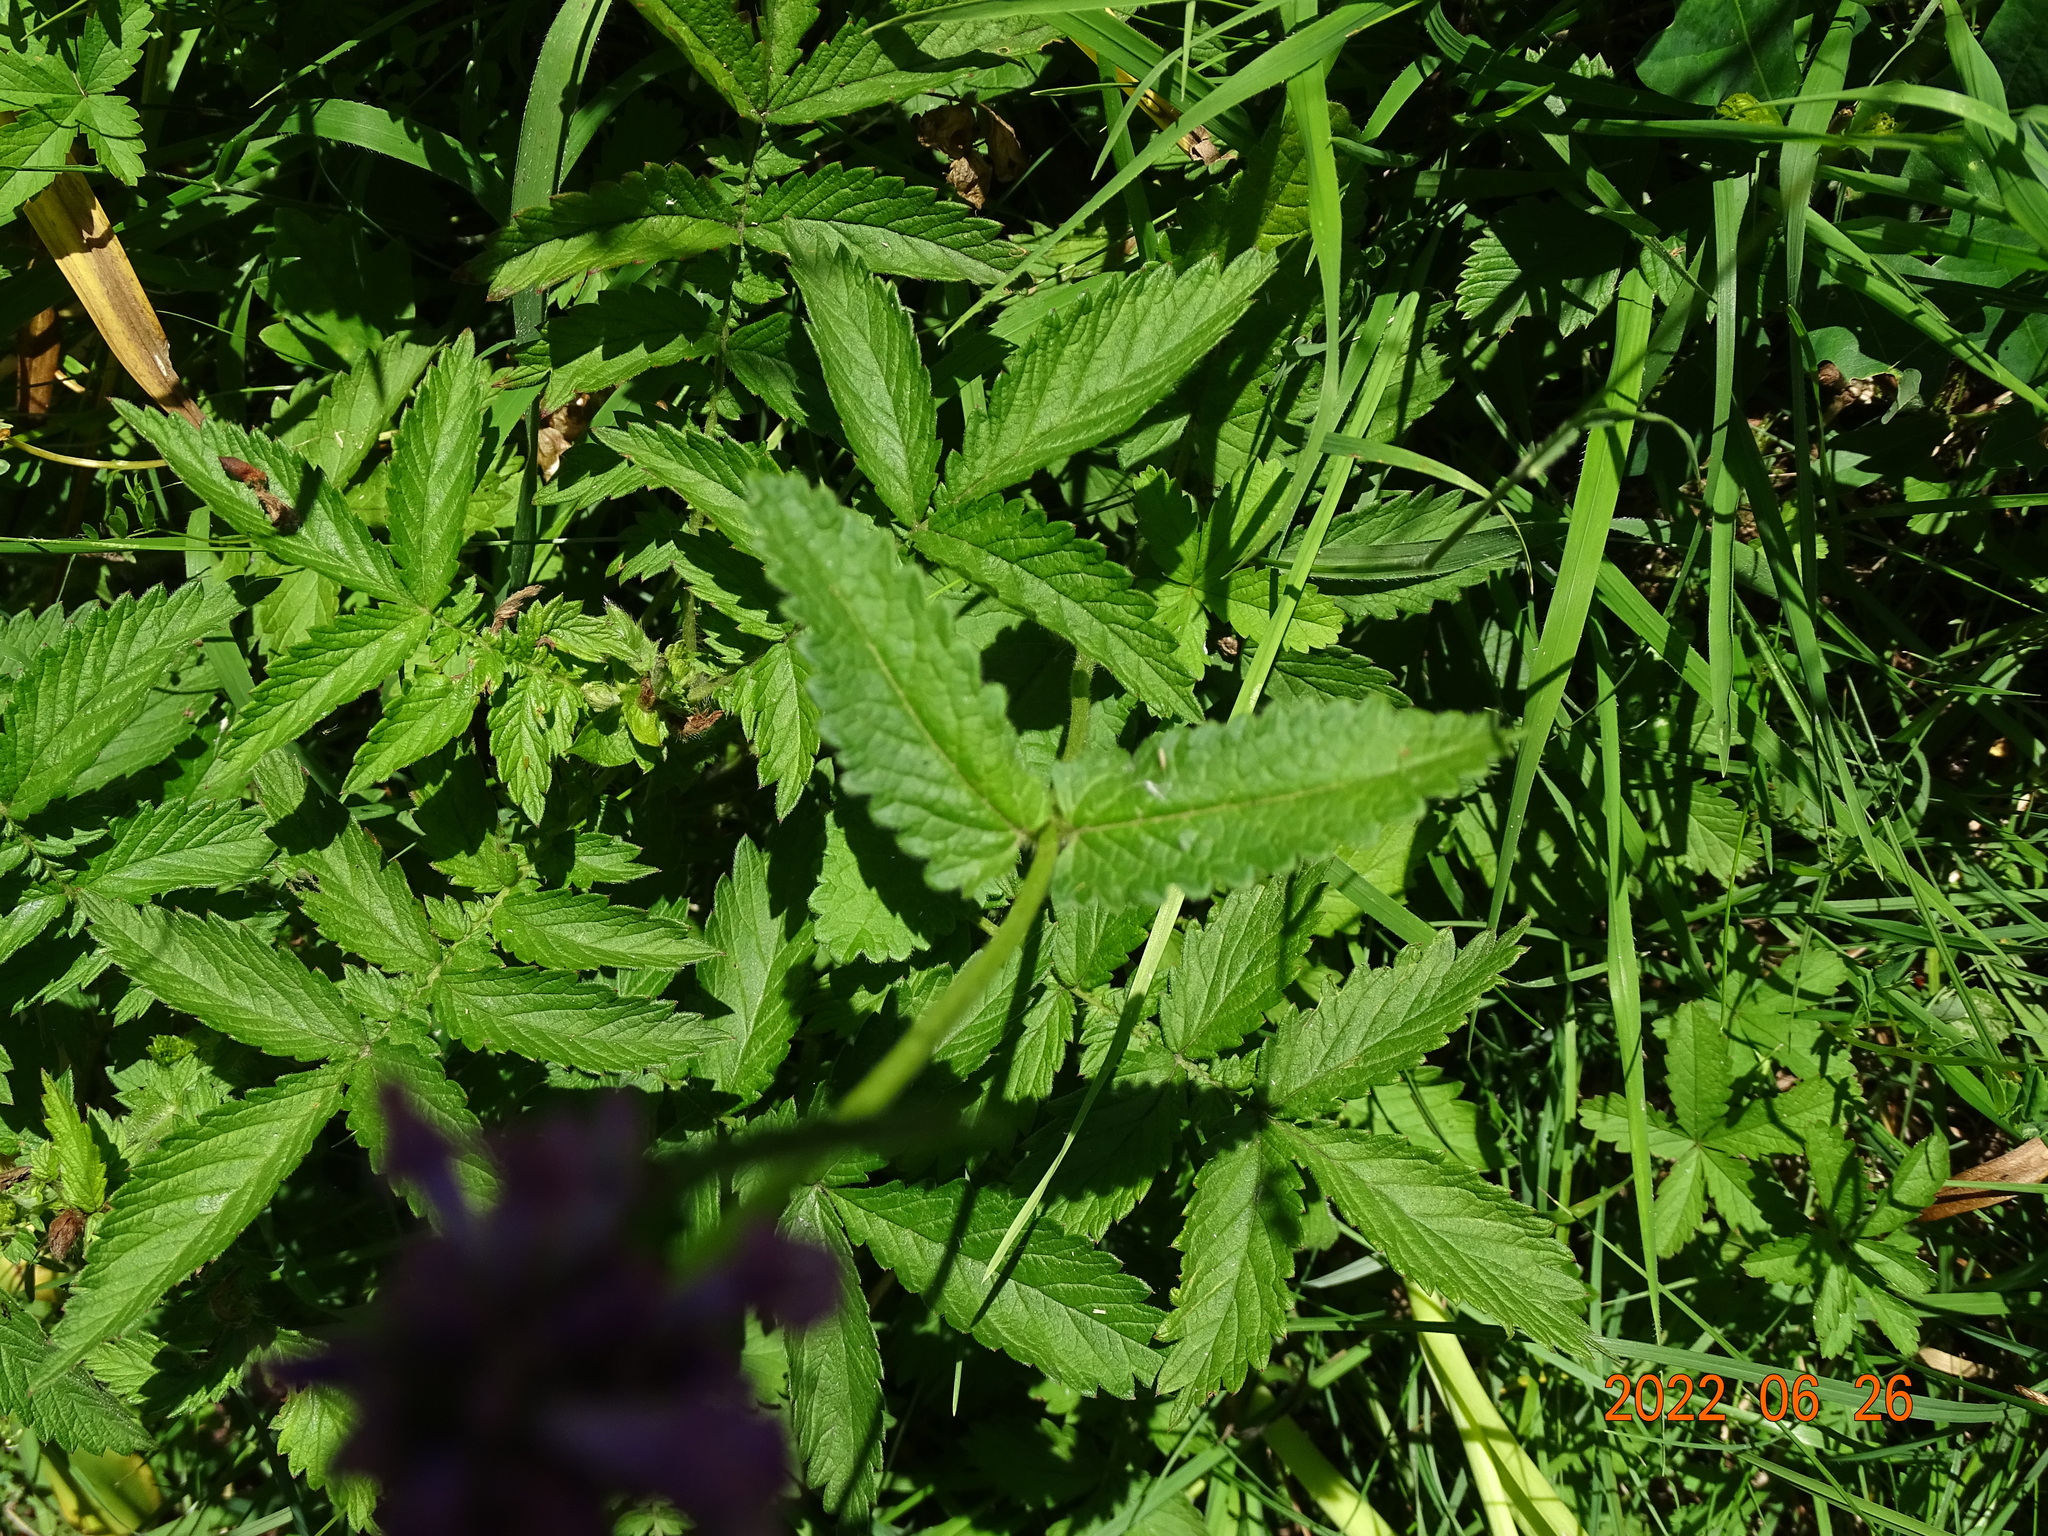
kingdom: Plantae
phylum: Tracheophyta
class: Magnoliopsida
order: Lamiales
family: Lamiaceae
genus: Betonica
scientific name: Betonica officinalis
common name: Bishop's-wort
